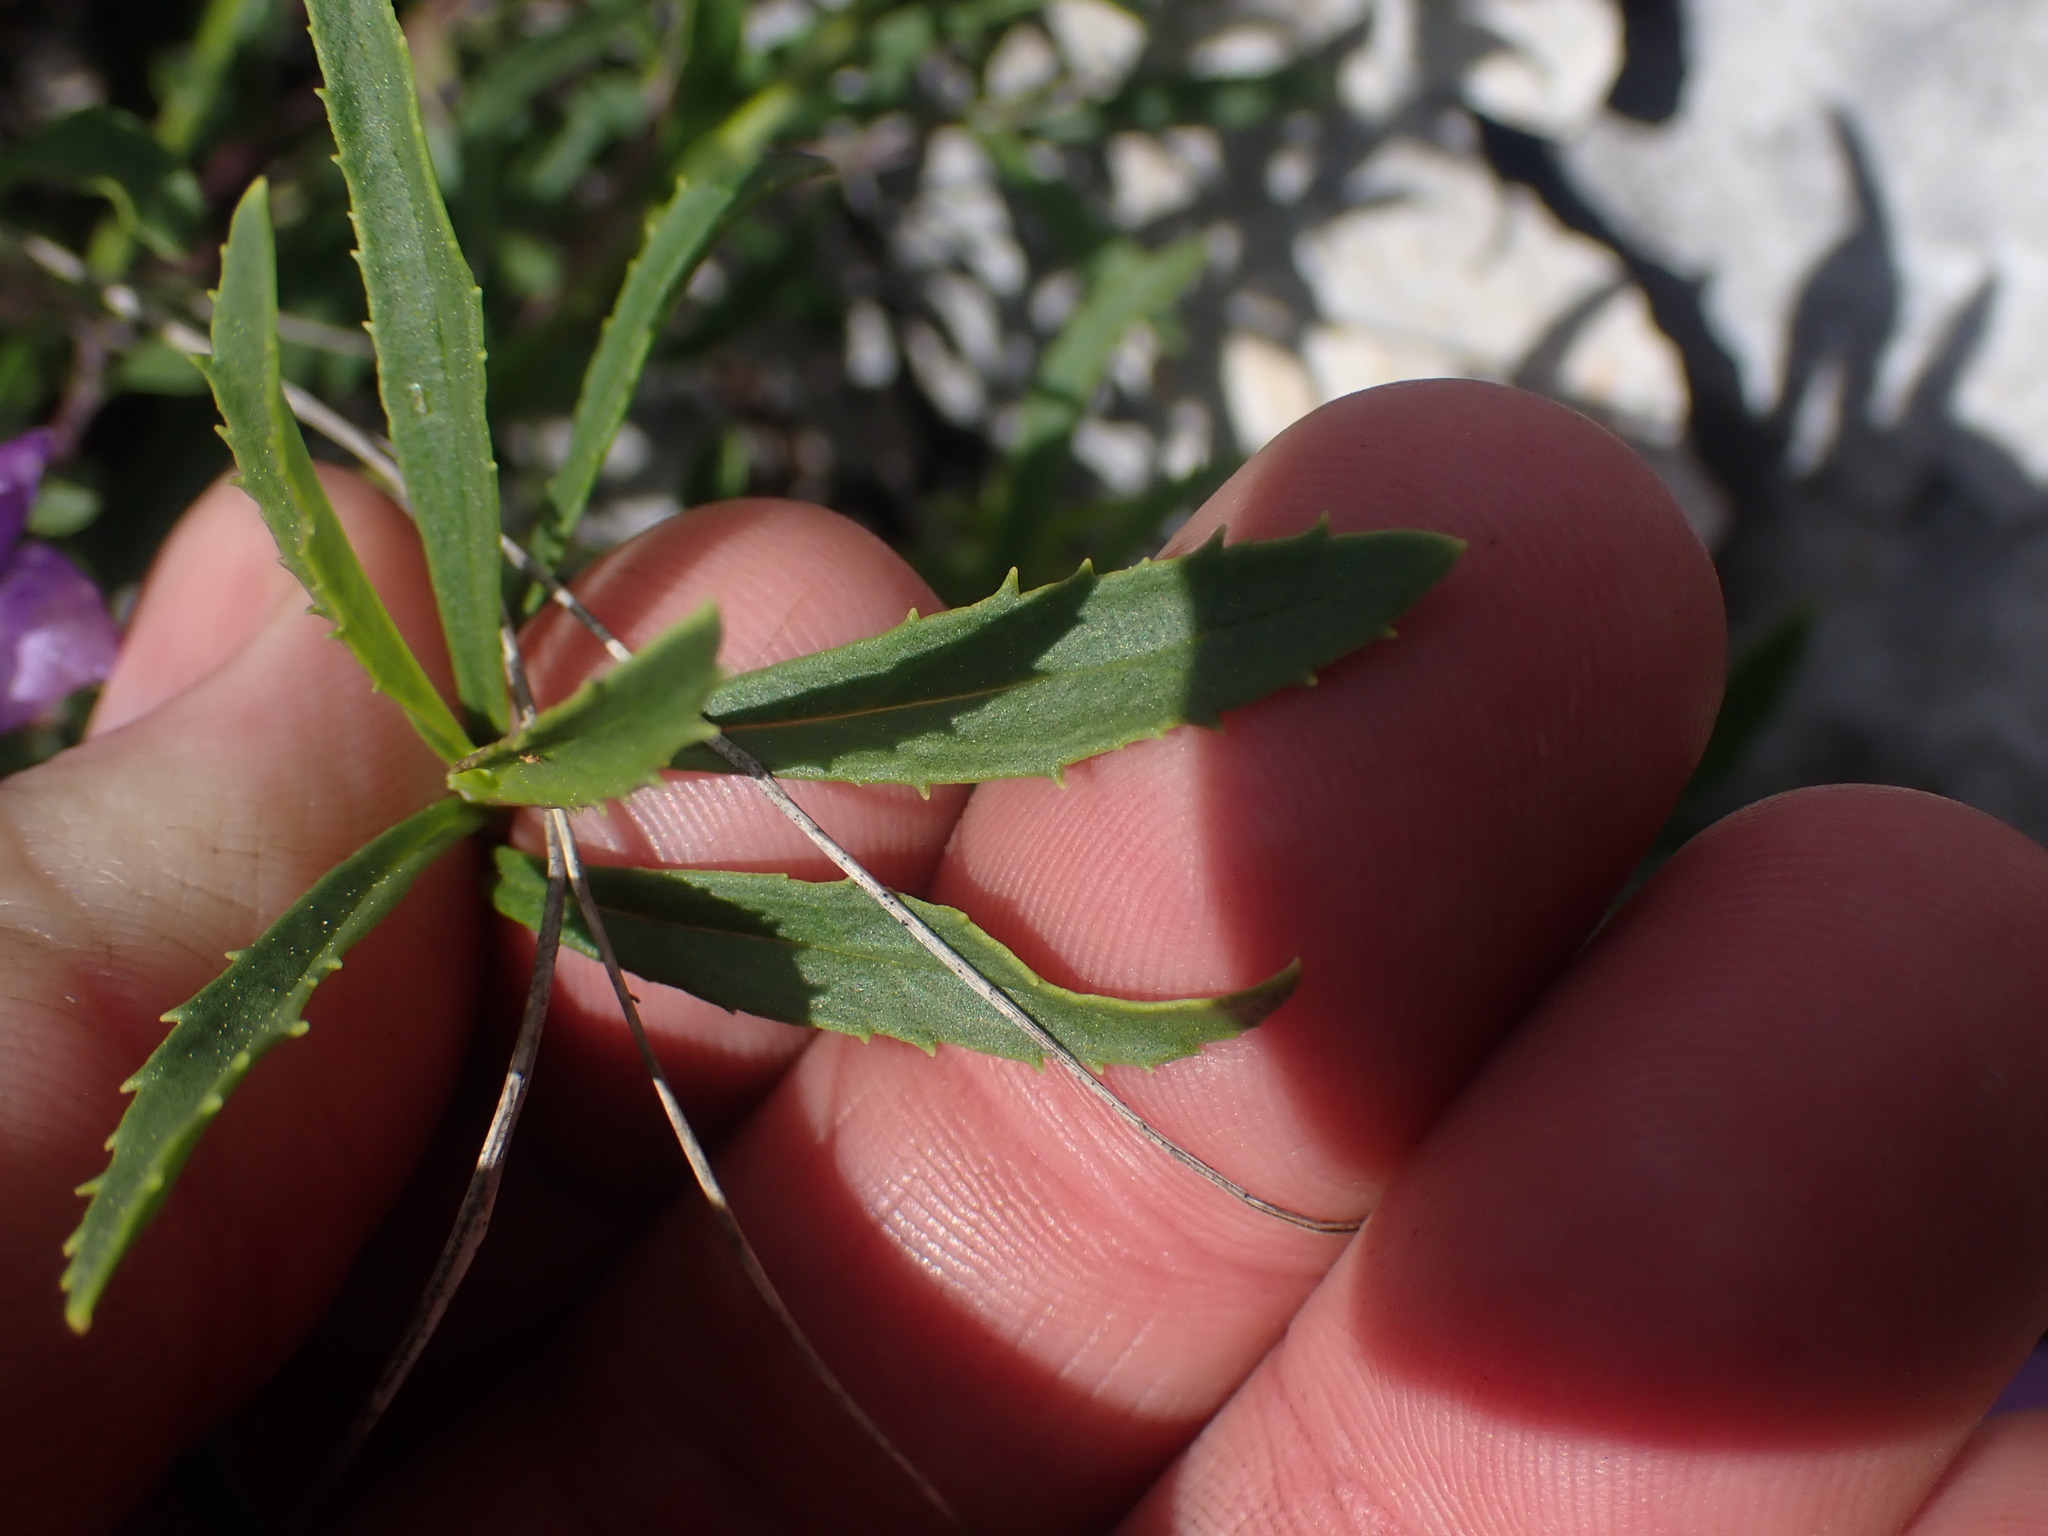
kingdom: Plantae
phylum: Tracheophyta
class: Magnoliopsida
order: Lamiales
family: Plantaginaceae
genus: Penstemon
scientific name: Penstemon fruticosus
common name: Bush penstemon
